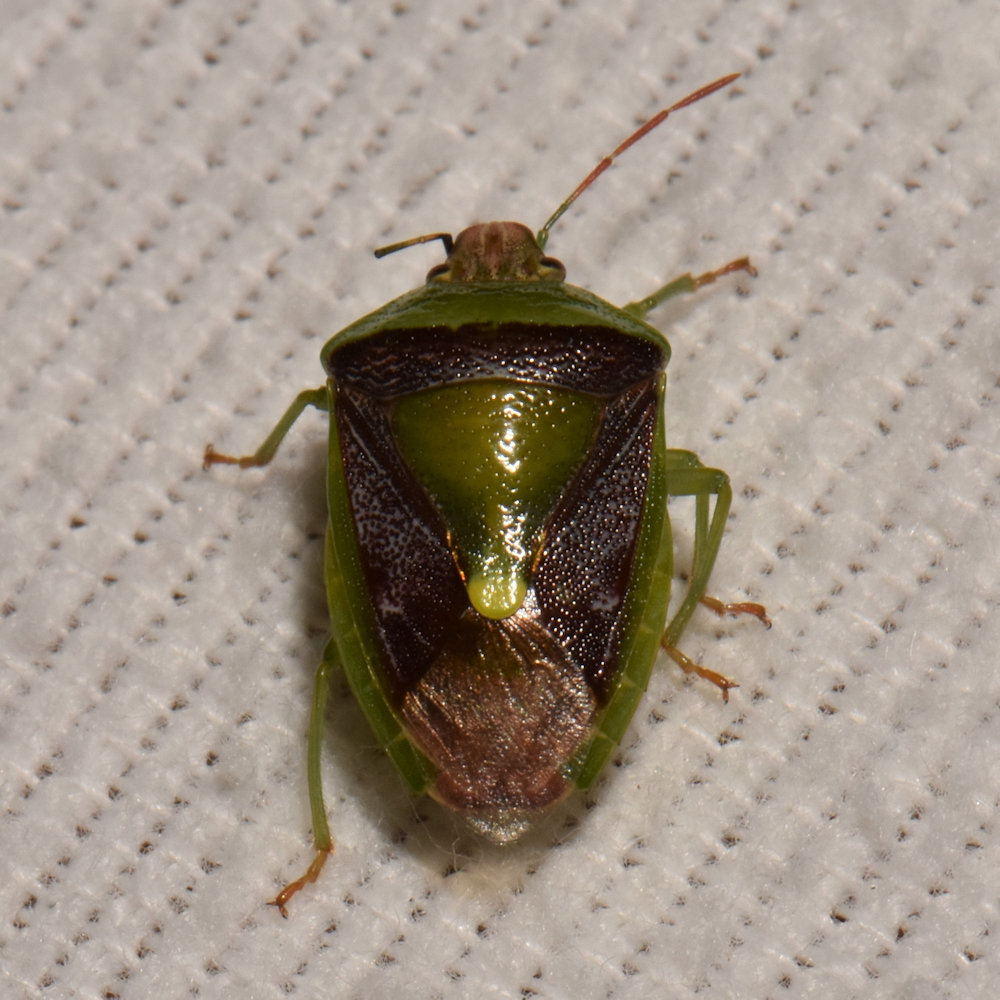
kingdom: Animalia
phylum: Arthropoda
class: Insecta
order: Hemiptera
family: Pentatomidae
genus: Banasa
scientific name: Banasa dimidiata
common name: Green burgundy stink bug
